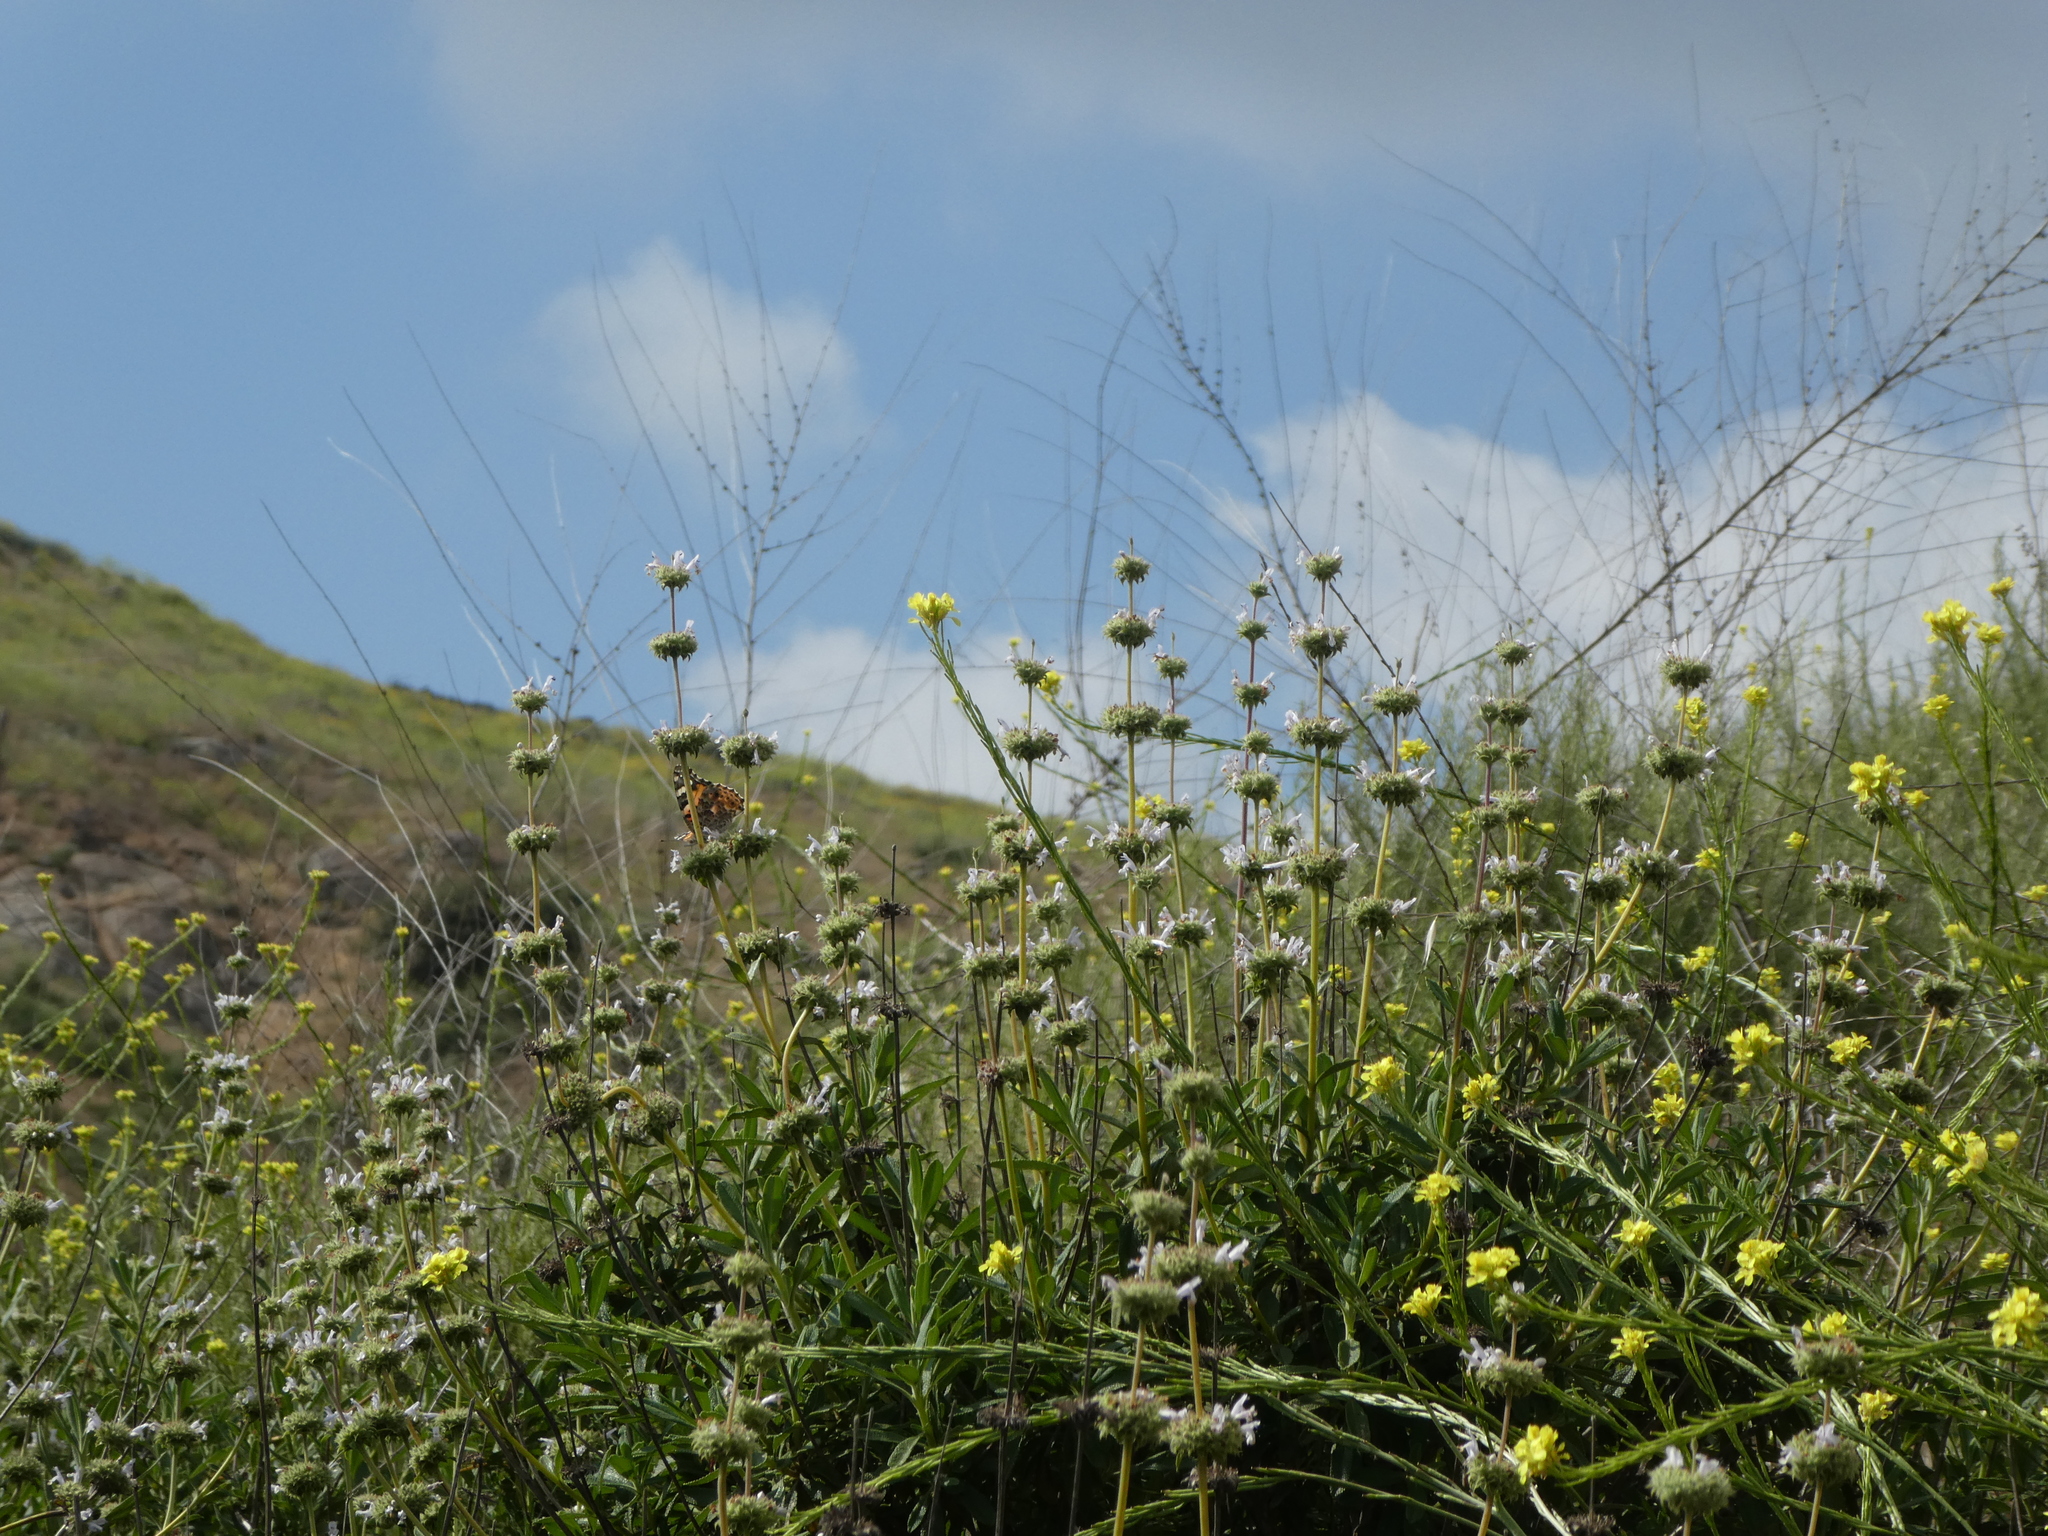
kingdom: Plantae
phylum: Tracheophyta
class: Magnoliopsida
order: Lamiales
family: Lamiaceae
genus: Salvia
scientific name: Salvia mellifera
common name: Black sage
